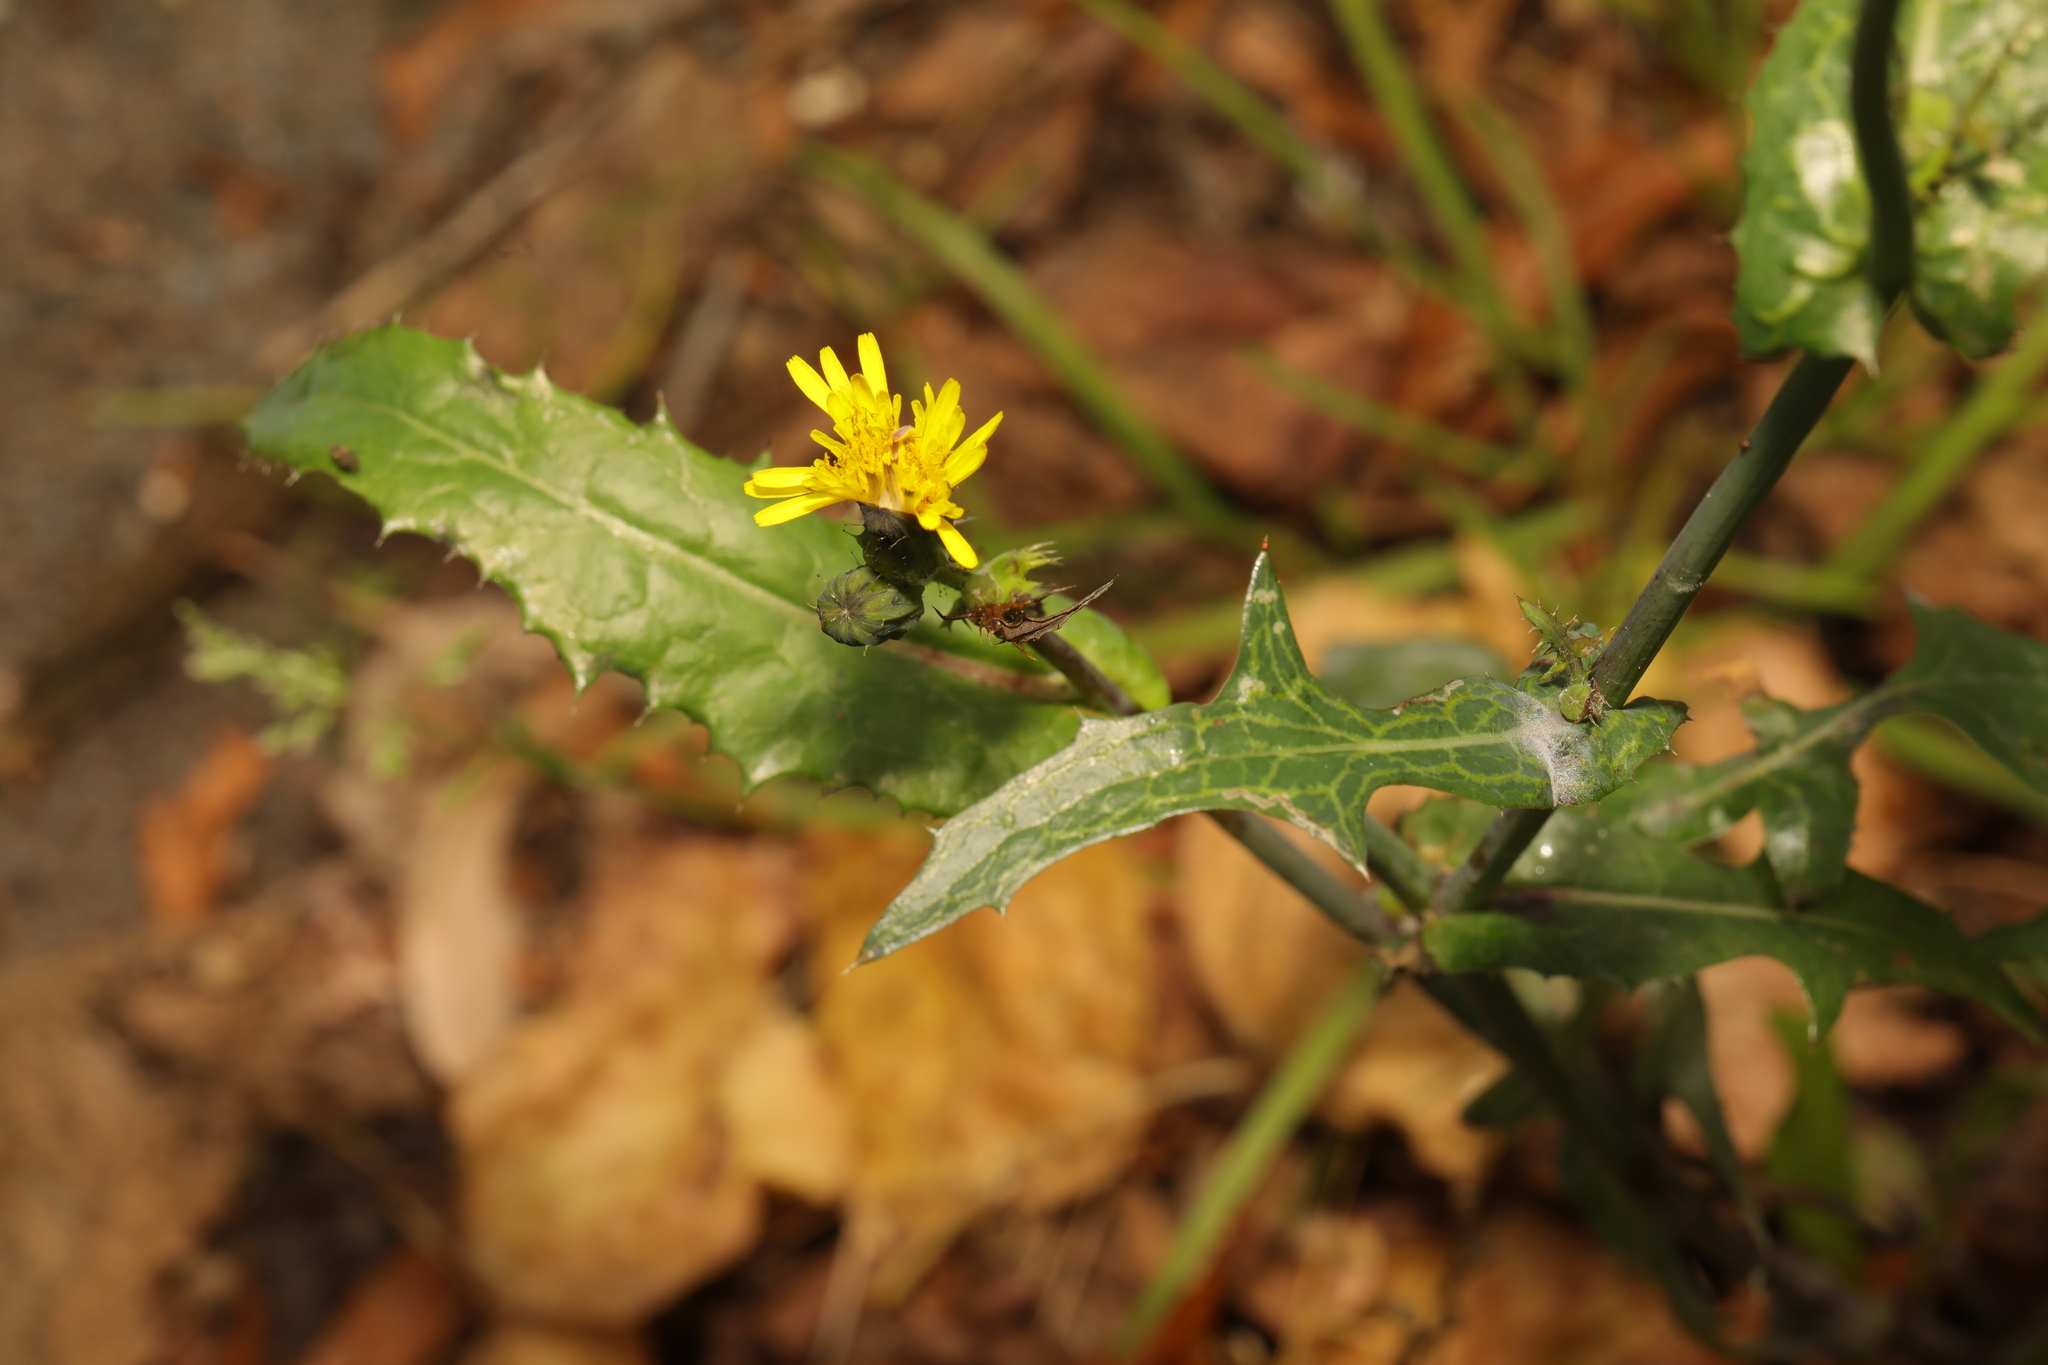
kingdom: Plantae
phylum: Tracheophyta
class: Magnoliopsida
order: Asterales
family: Asteraceae
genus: Sonchus
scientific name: Sonchus asper
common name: Prickly sow-thistle
